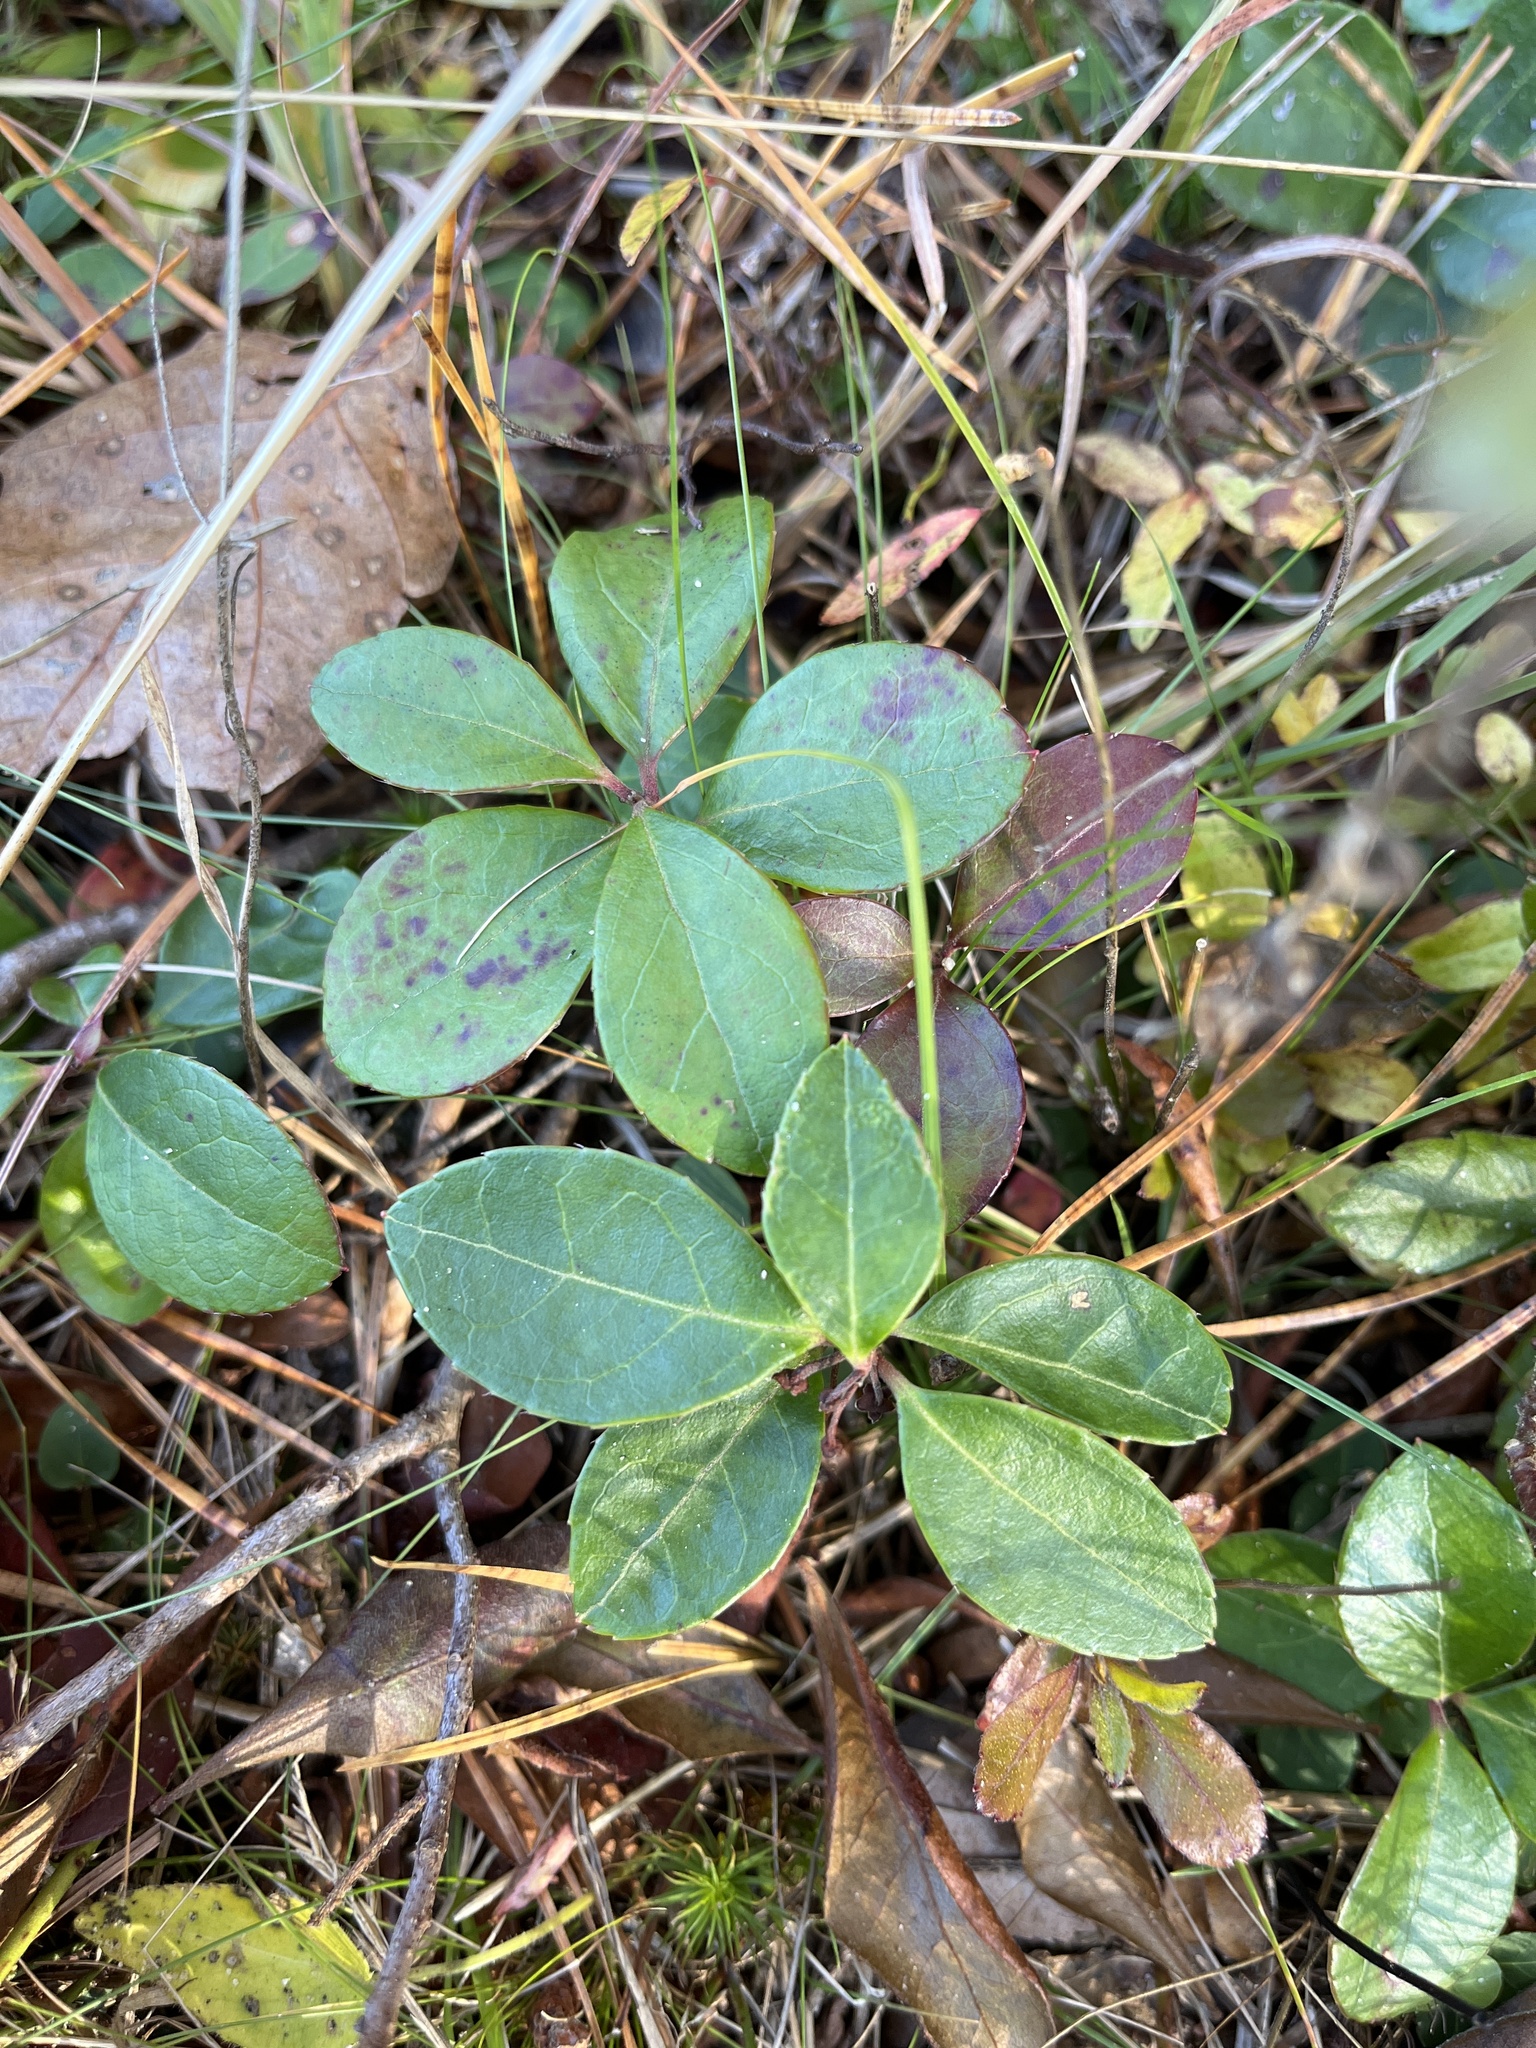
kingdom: Plantae
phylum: Tracheophyta
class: Magnoliopsida
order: Ericales
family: Ericaceae
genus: Gaultheria
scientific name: Gaultheria procumbens
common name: Checkerberry
